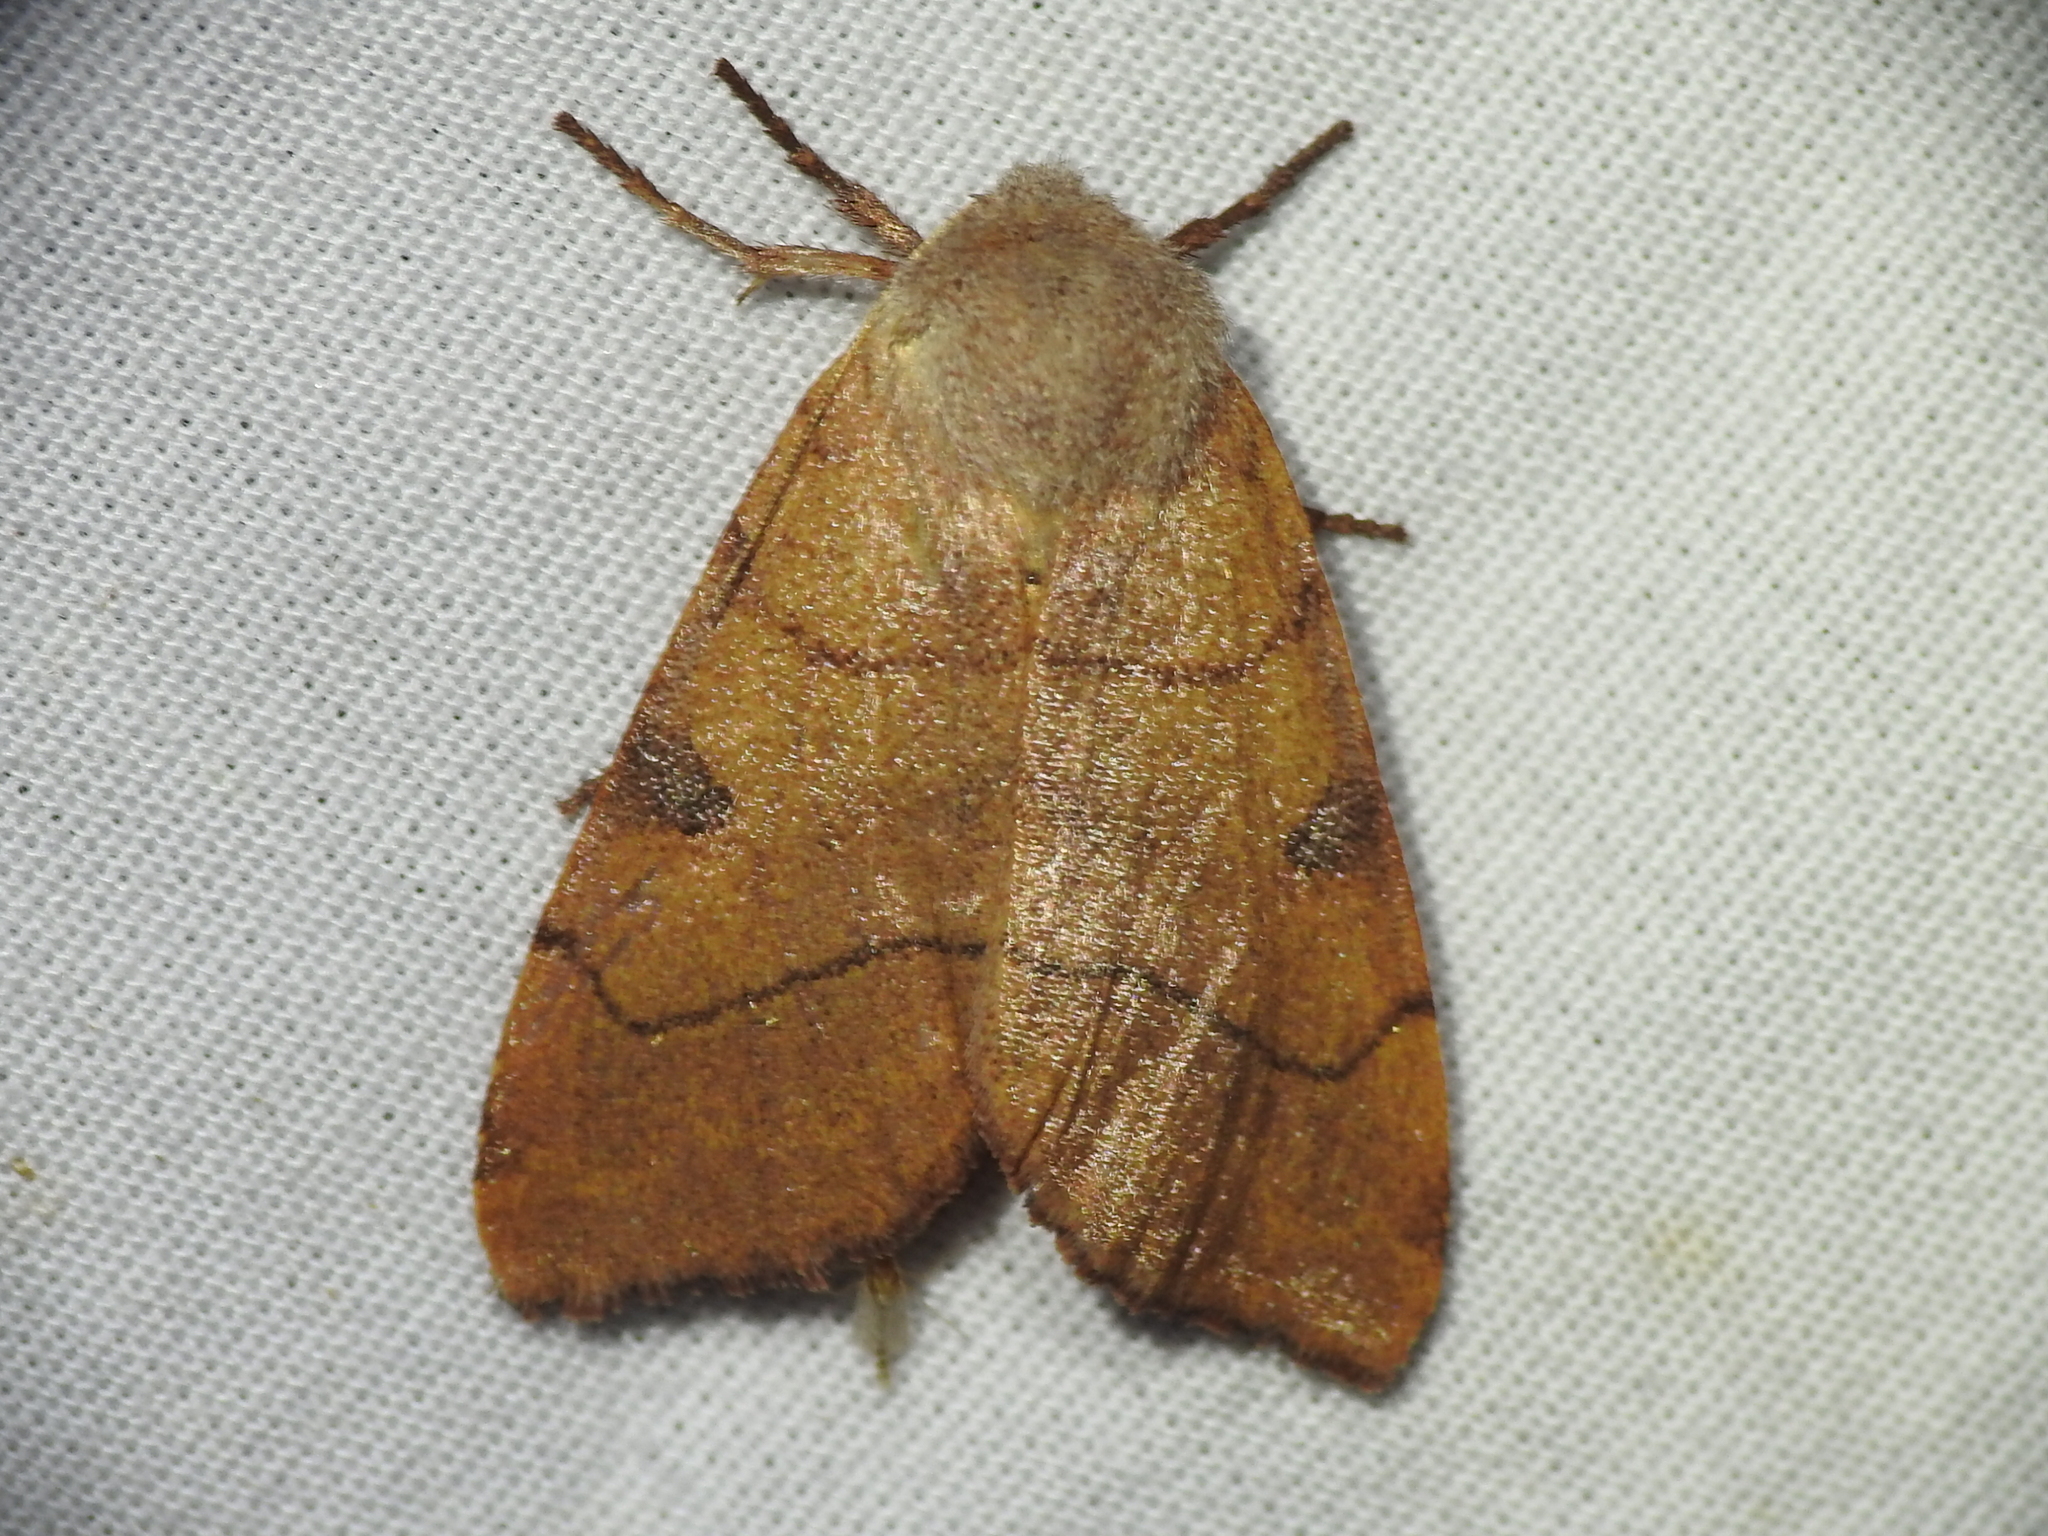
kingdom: Animalia
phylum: Arthropoda
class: Insecta
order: Lepidoptera
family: Noctuidae
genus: Choephora
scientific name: Choephora fungorum
